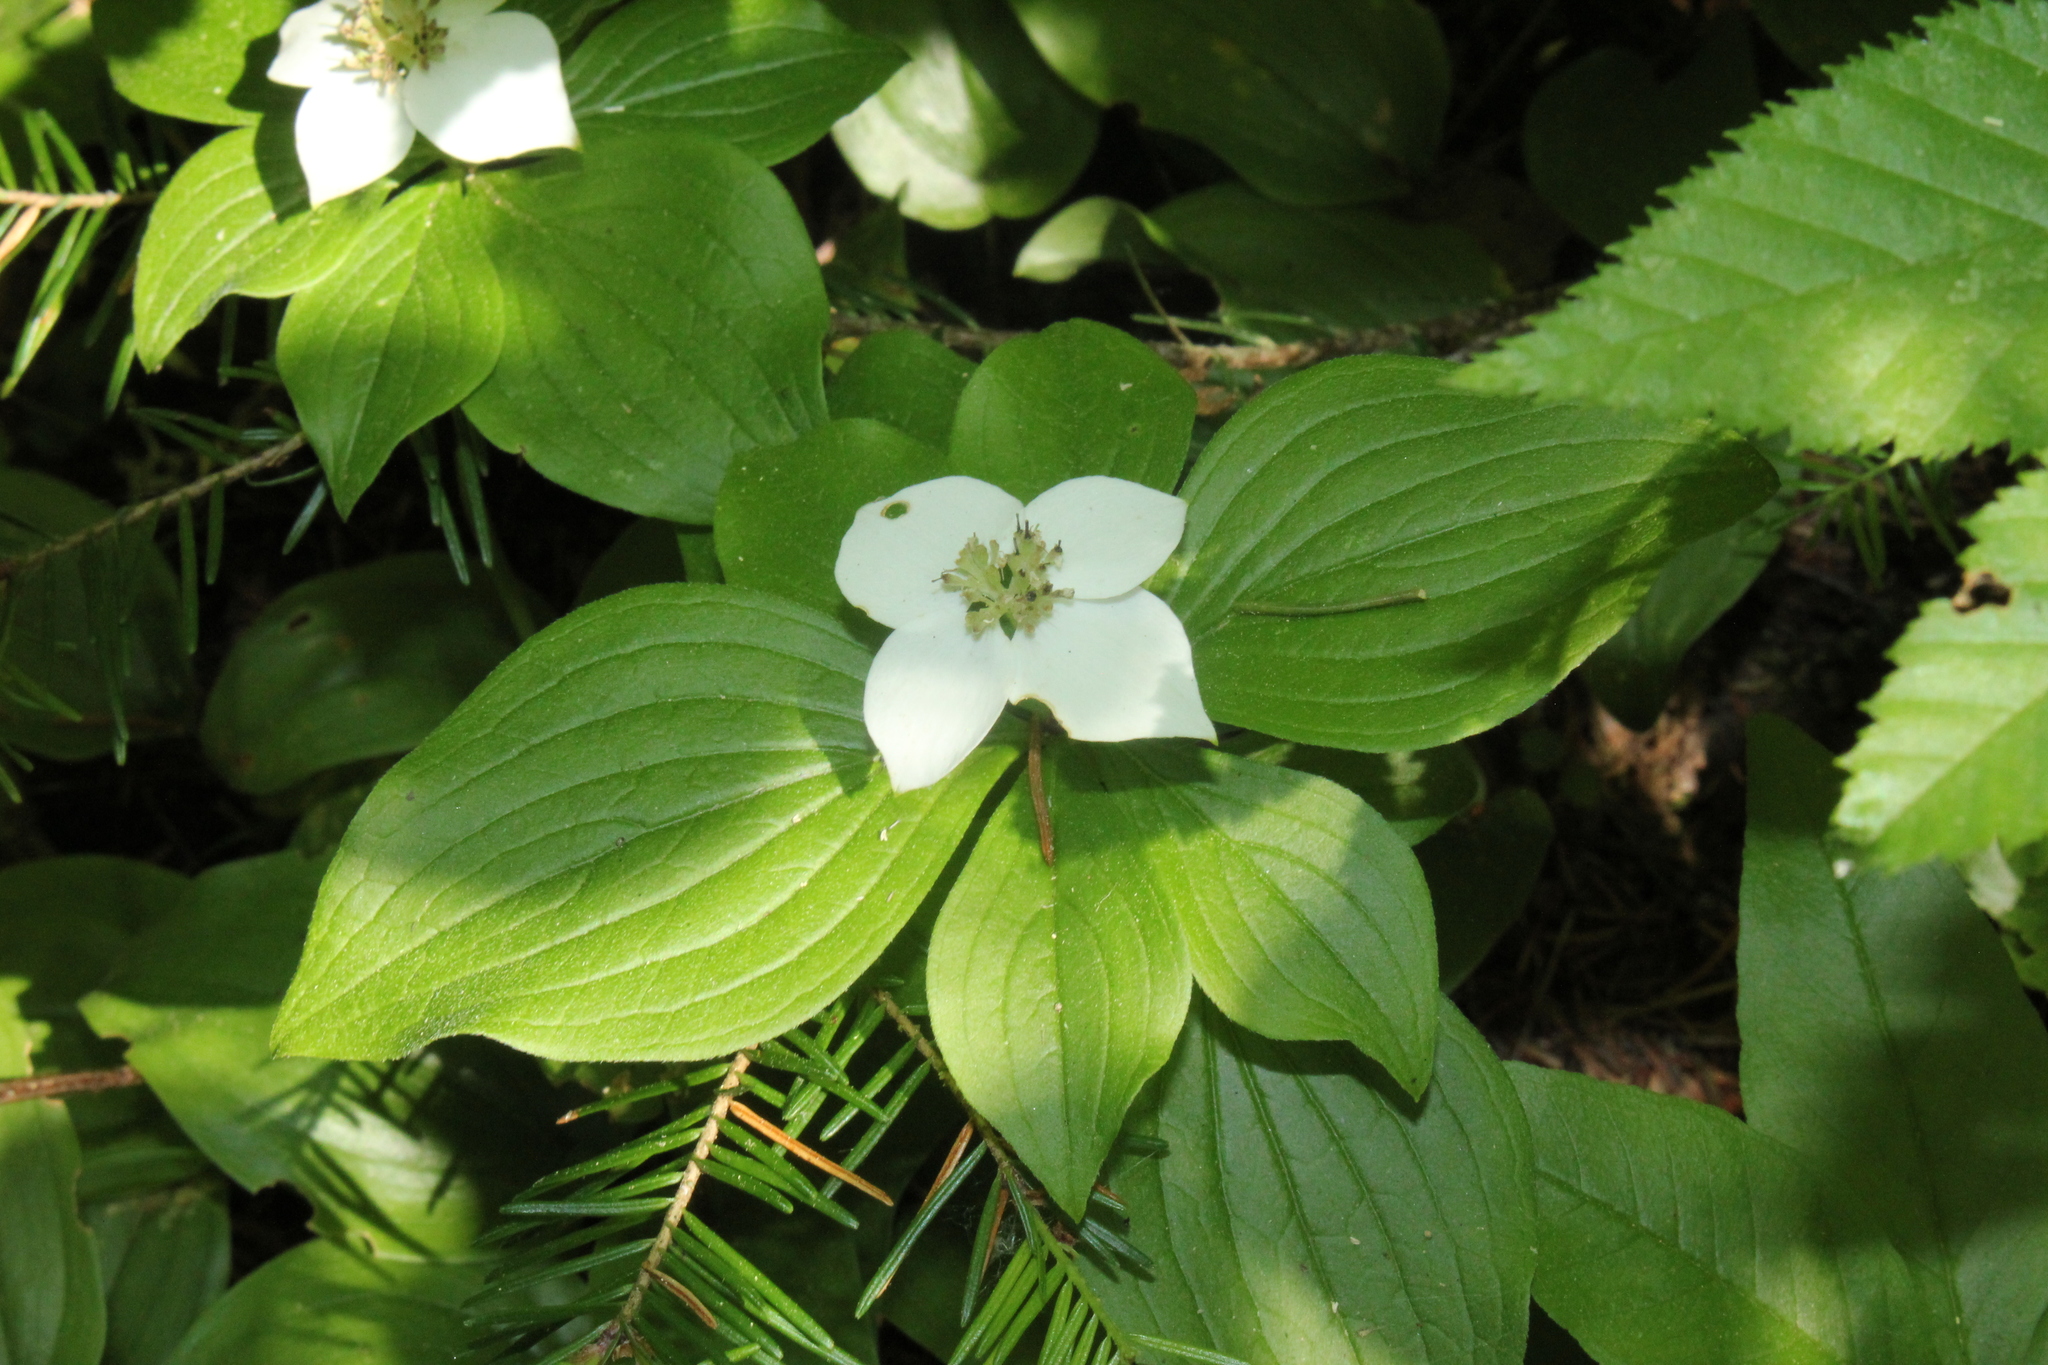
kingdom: Plantae
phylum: Tracheophyta
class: Magnoliopsida
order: Cornales
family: Cornaceae
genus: Cornus
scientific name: Cornus canadensis
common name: Creeping dogwood
